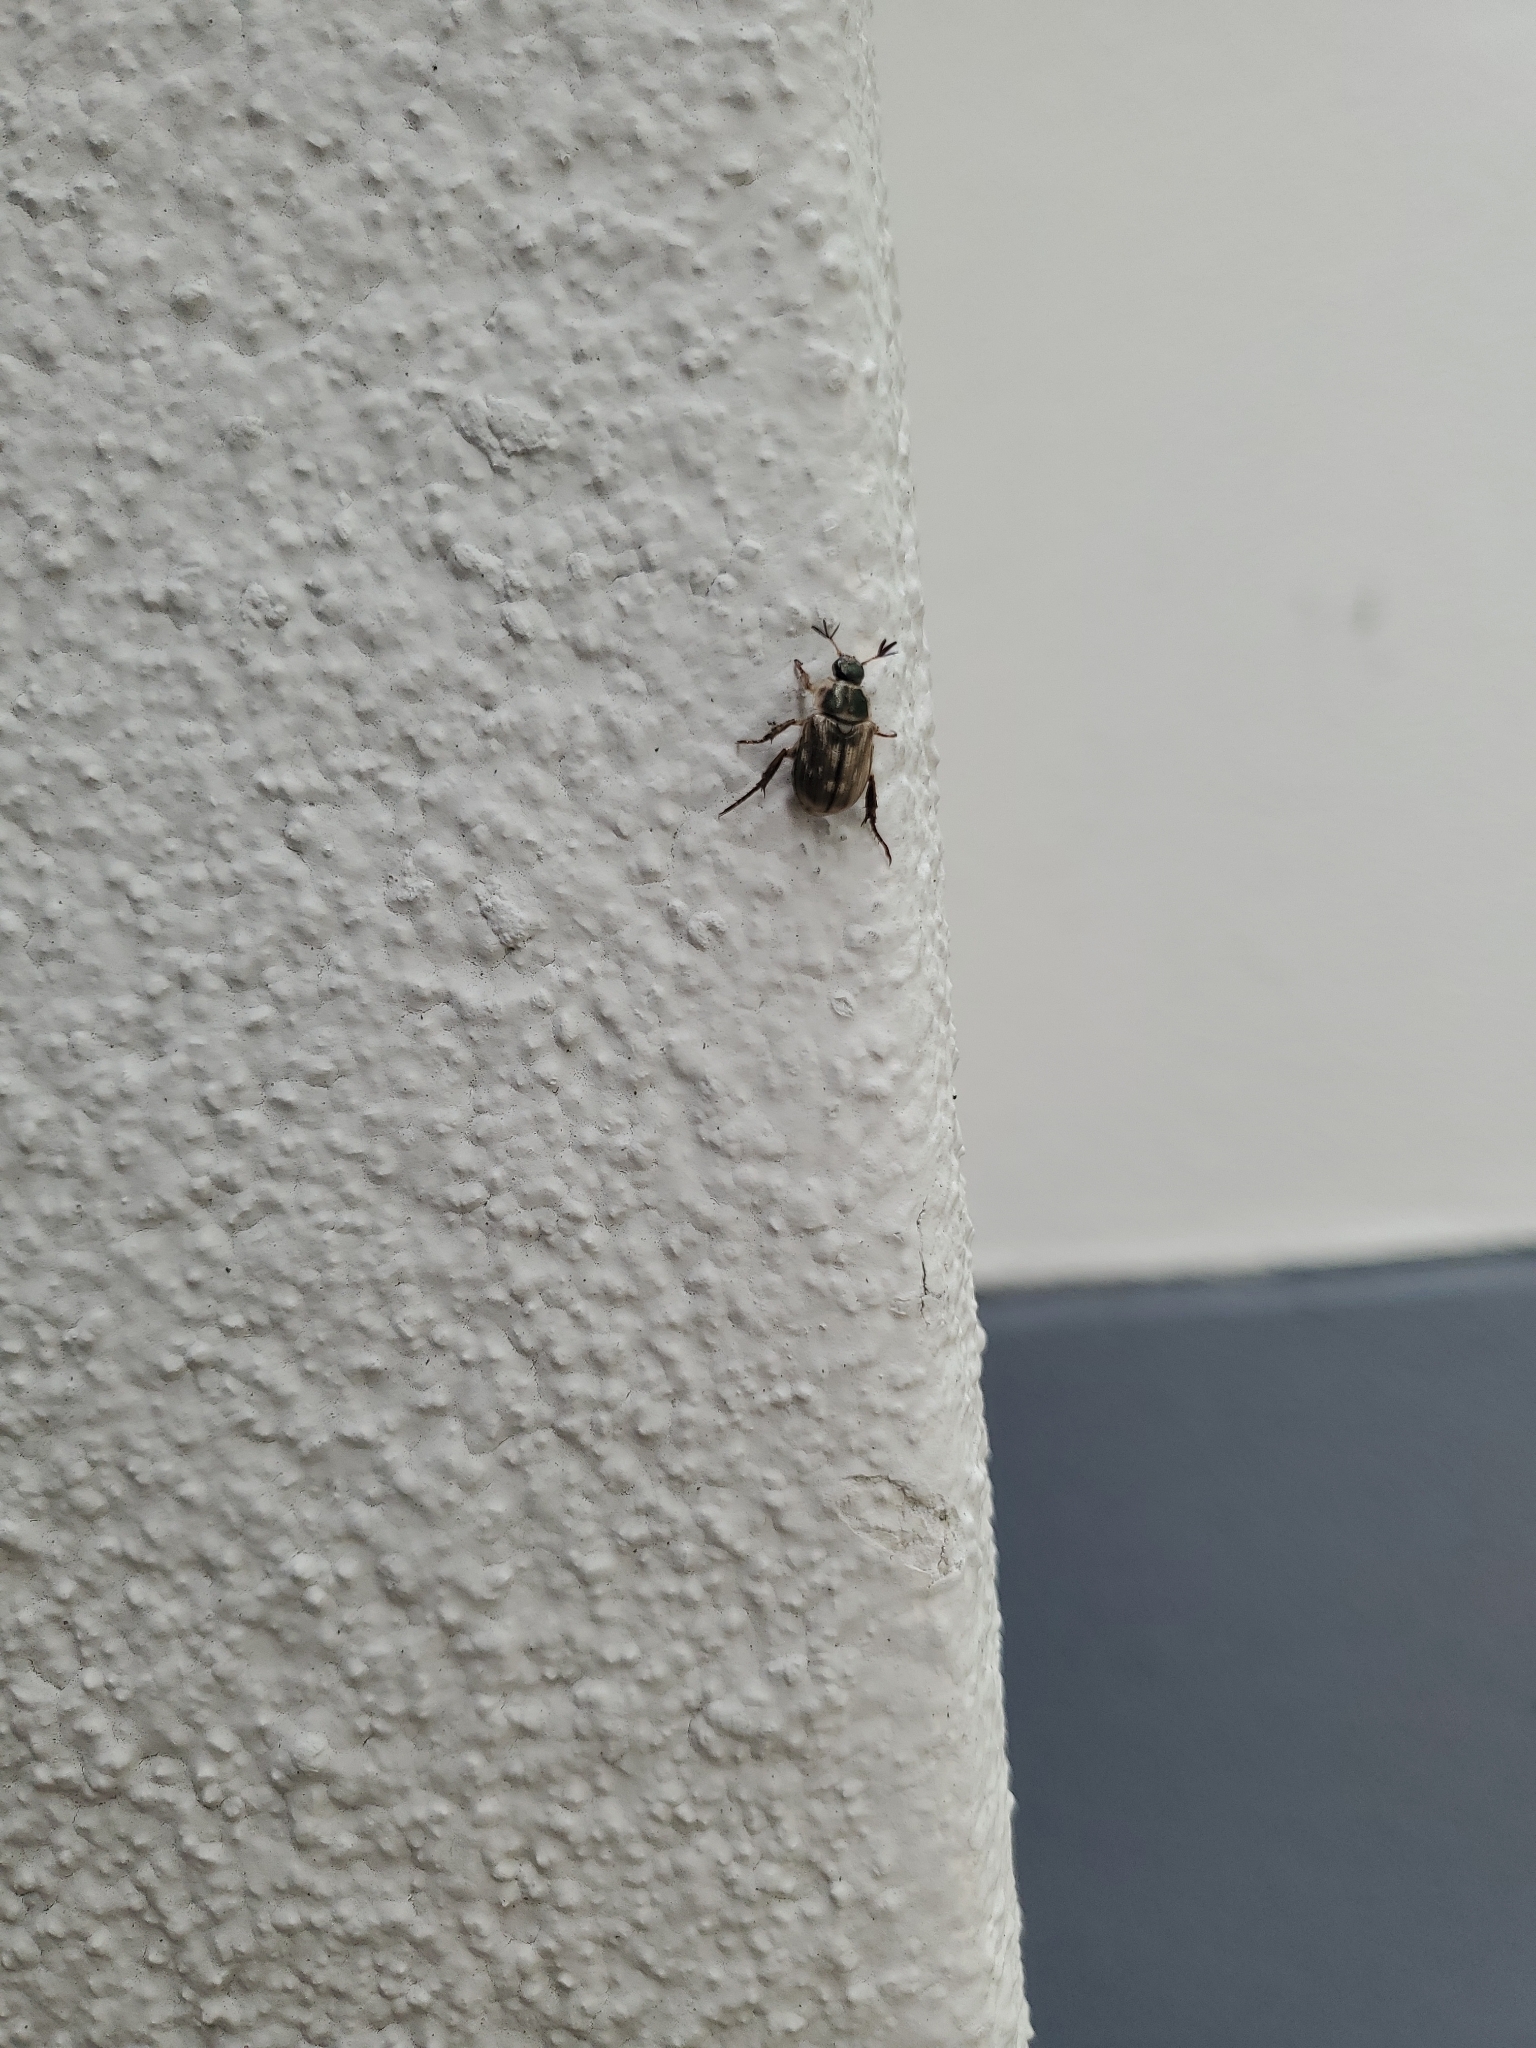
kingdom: Animalia
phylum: Arthropoda
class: Insecta
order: Coleoptera
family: Scarabaeidae
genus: Exomala
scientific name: Exomala orientalis
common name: Oriental beetle
